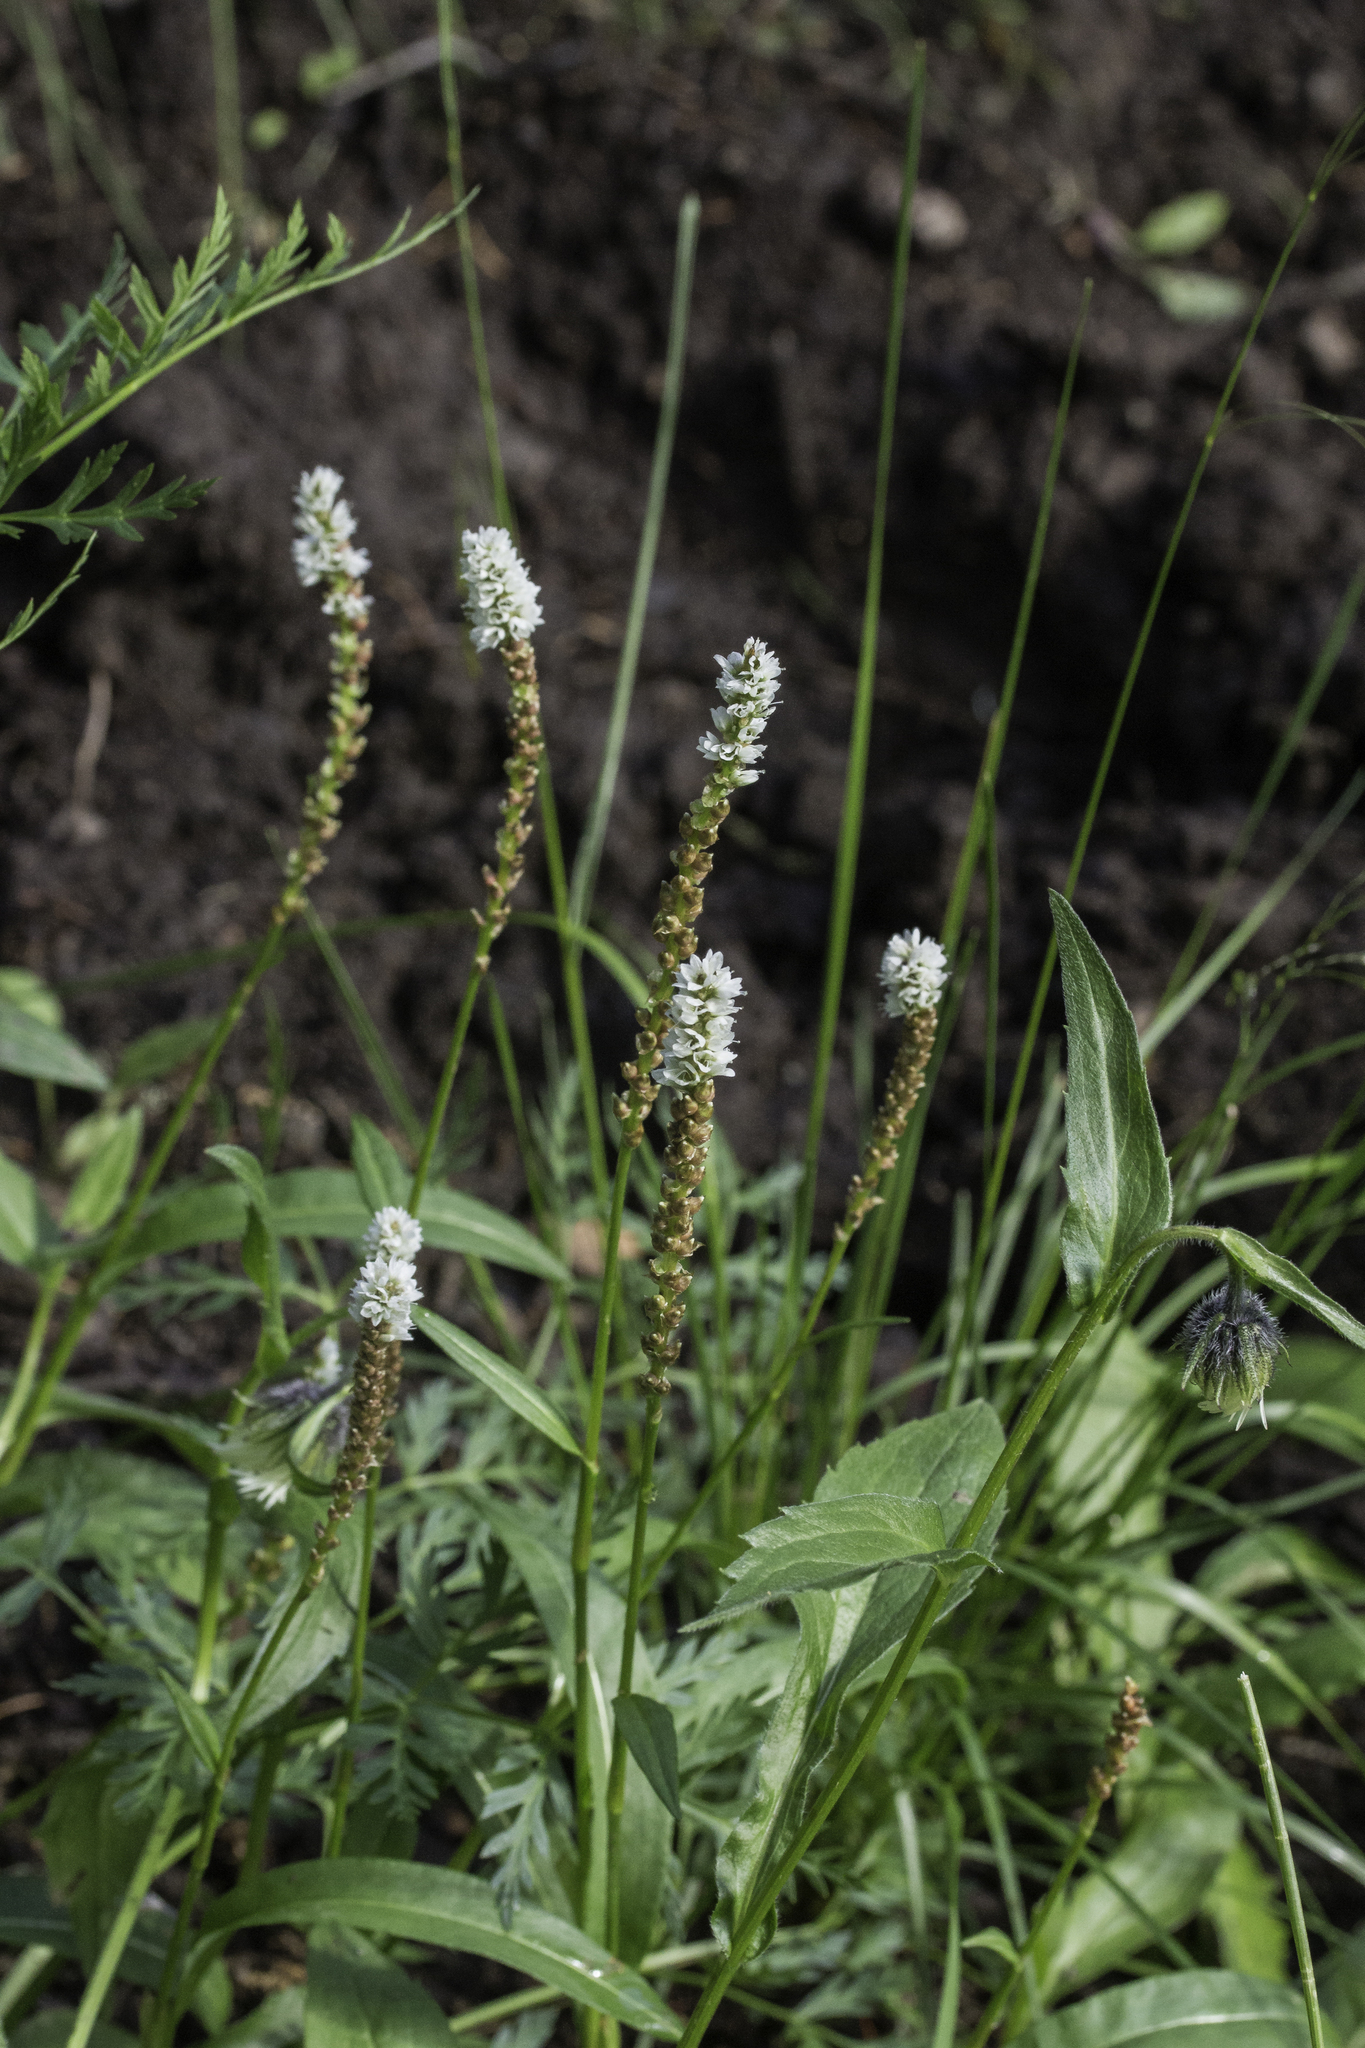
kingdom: Plantae
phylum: Tracheophyta
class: Magnoliopsida
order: Caryophyllales
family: Polygonaceae
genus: Bistorta
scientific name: Bistorta vivipara
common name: Alpine bistort
